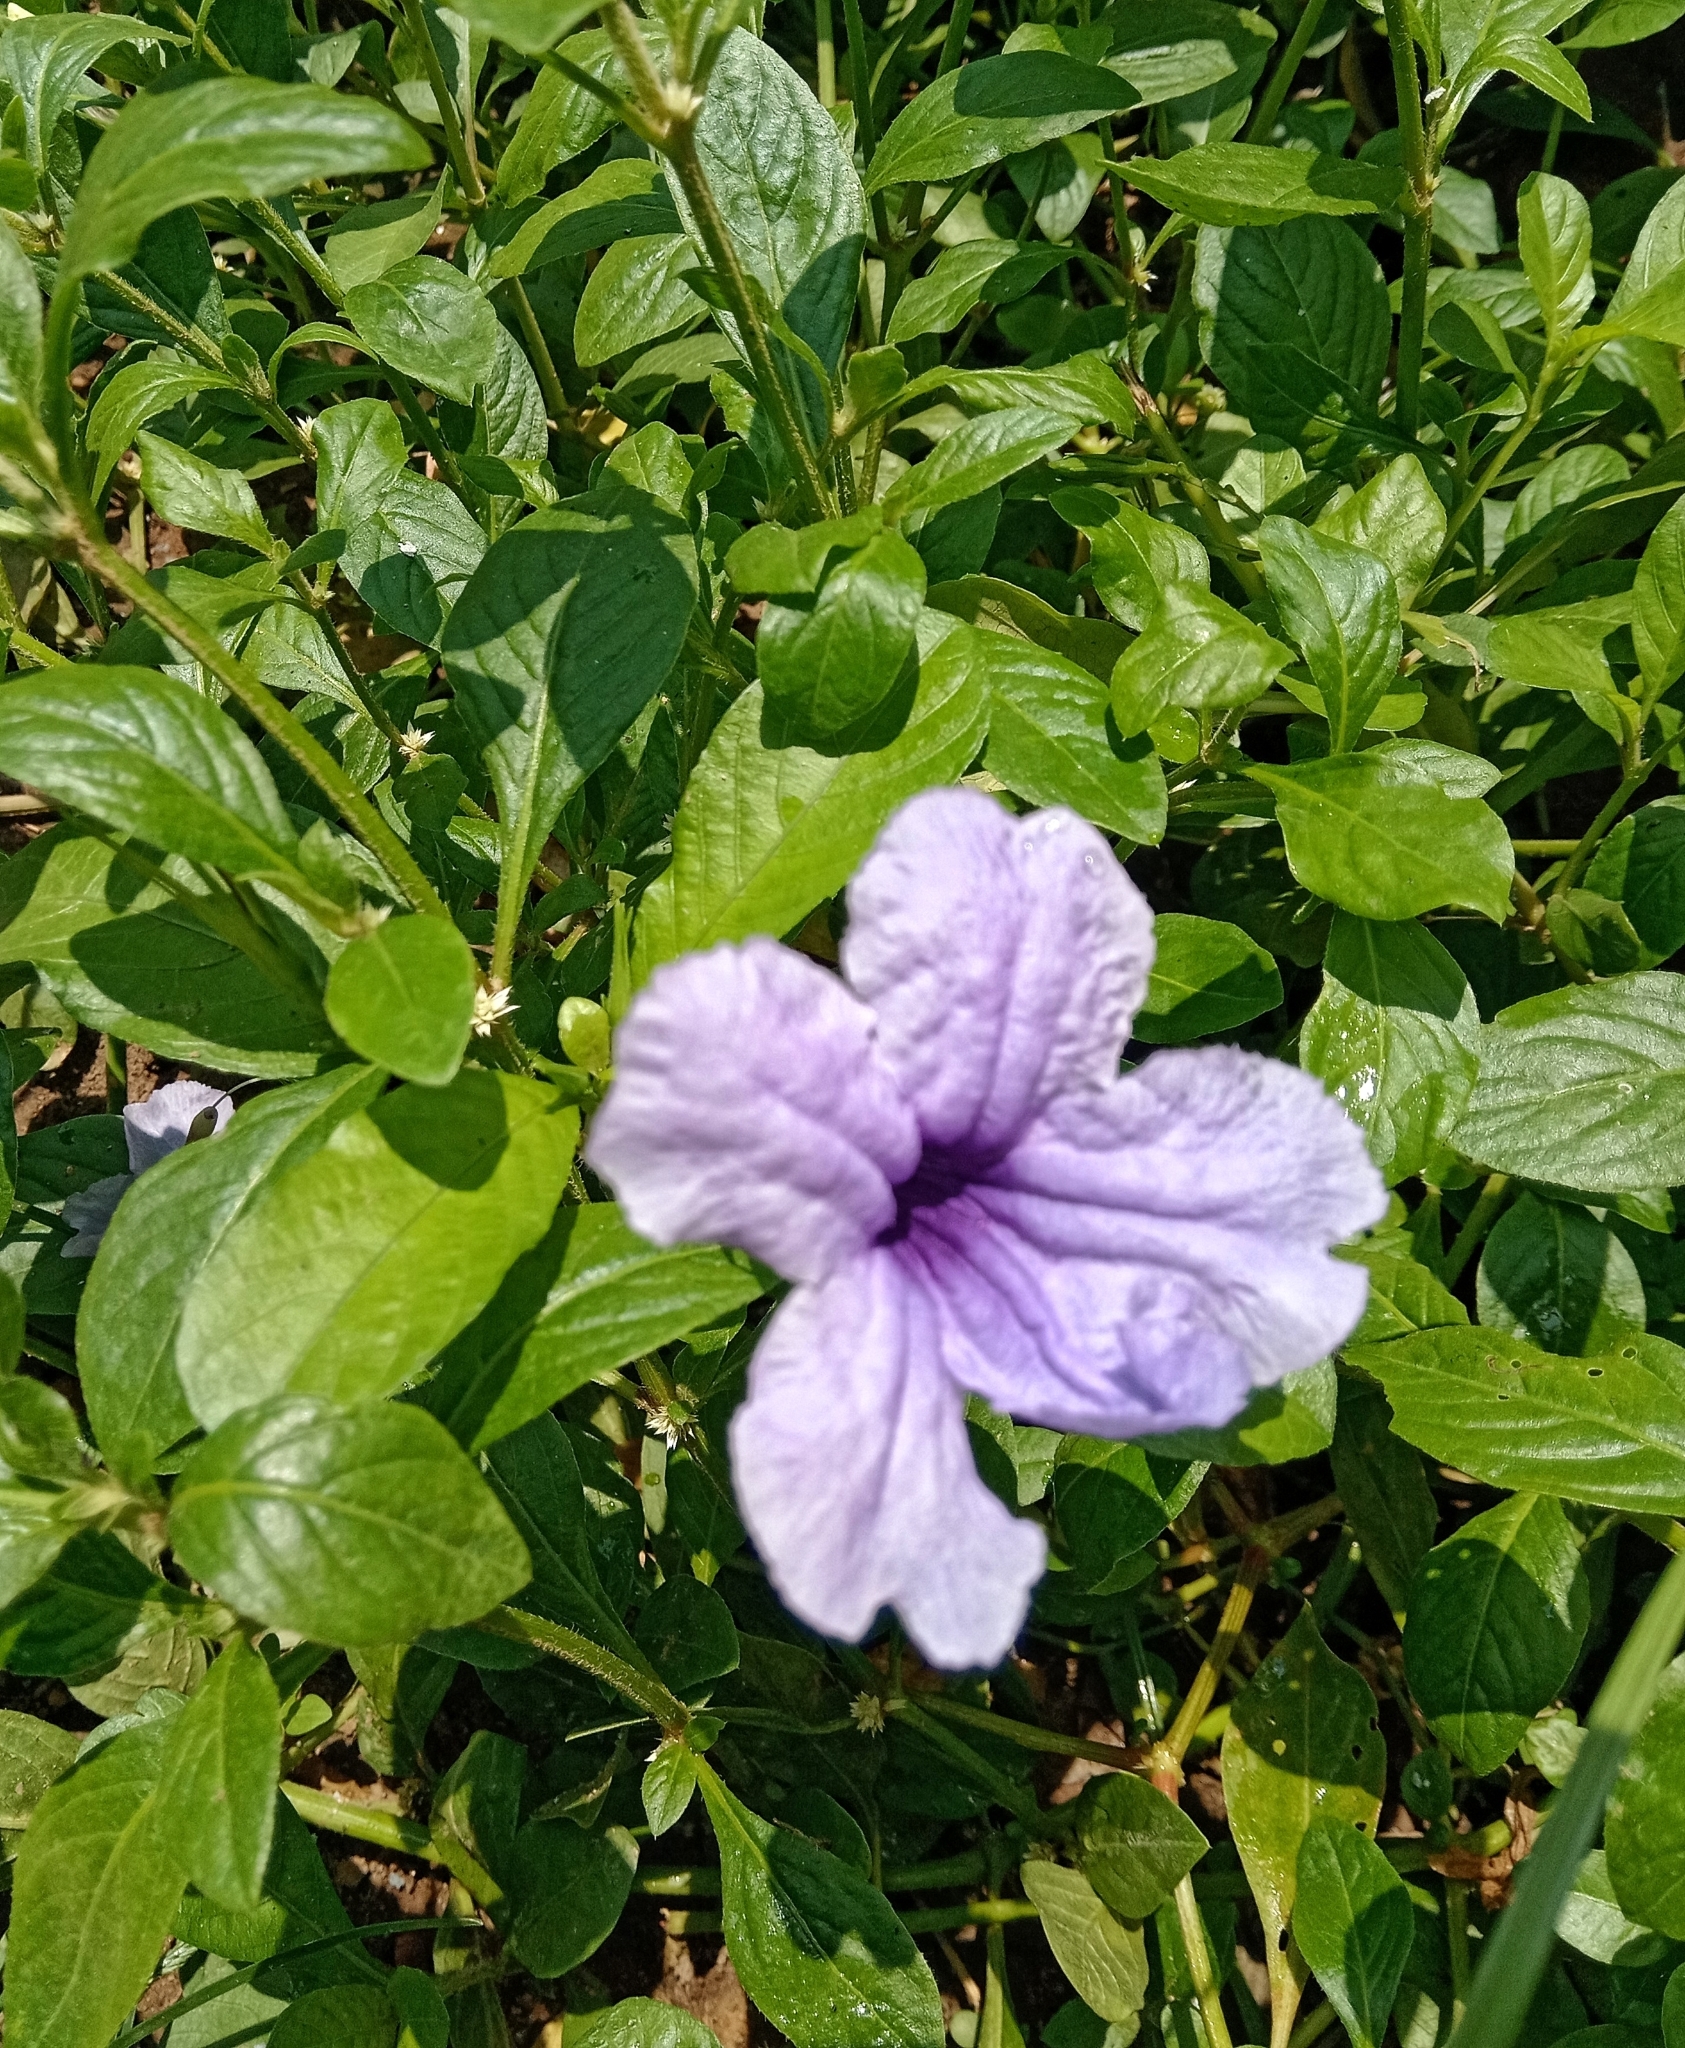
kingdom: Plantae
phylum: Tracheophyta
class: Magnoliopsida
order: Lamiales
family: Acanthaceae
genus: Ruellia
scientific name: Ruellia tuberosa
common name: Devil's bit
